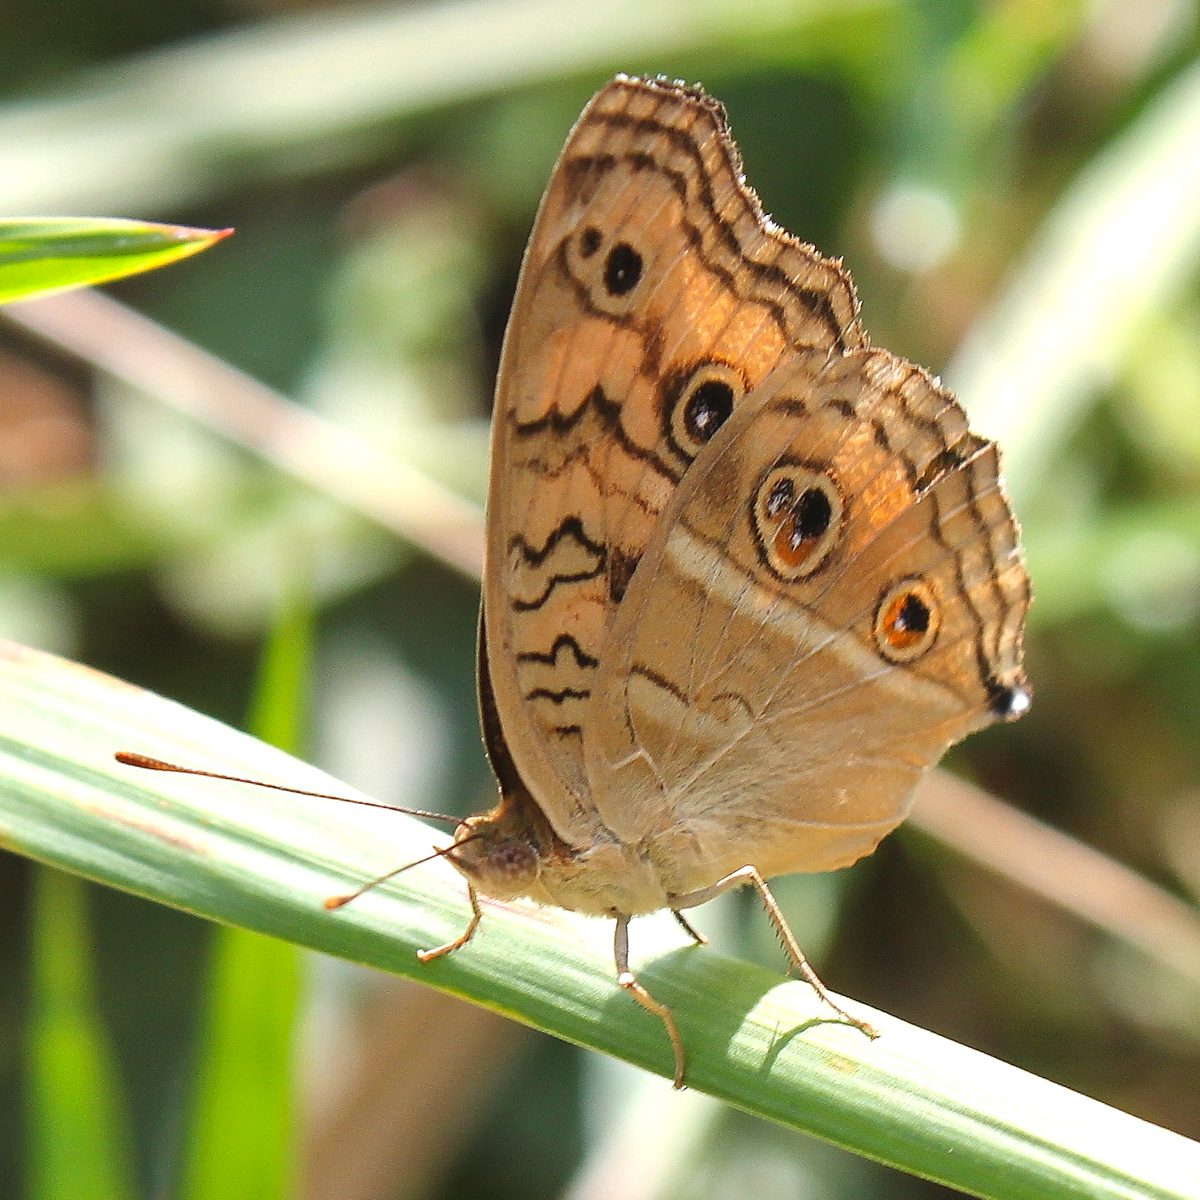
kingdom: Animalia
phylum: Arthropoda
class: Insecta
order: Lepidoptera
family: Nymphalidae
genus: Junonia
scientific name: Junonia almana
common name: Peacock pansy
